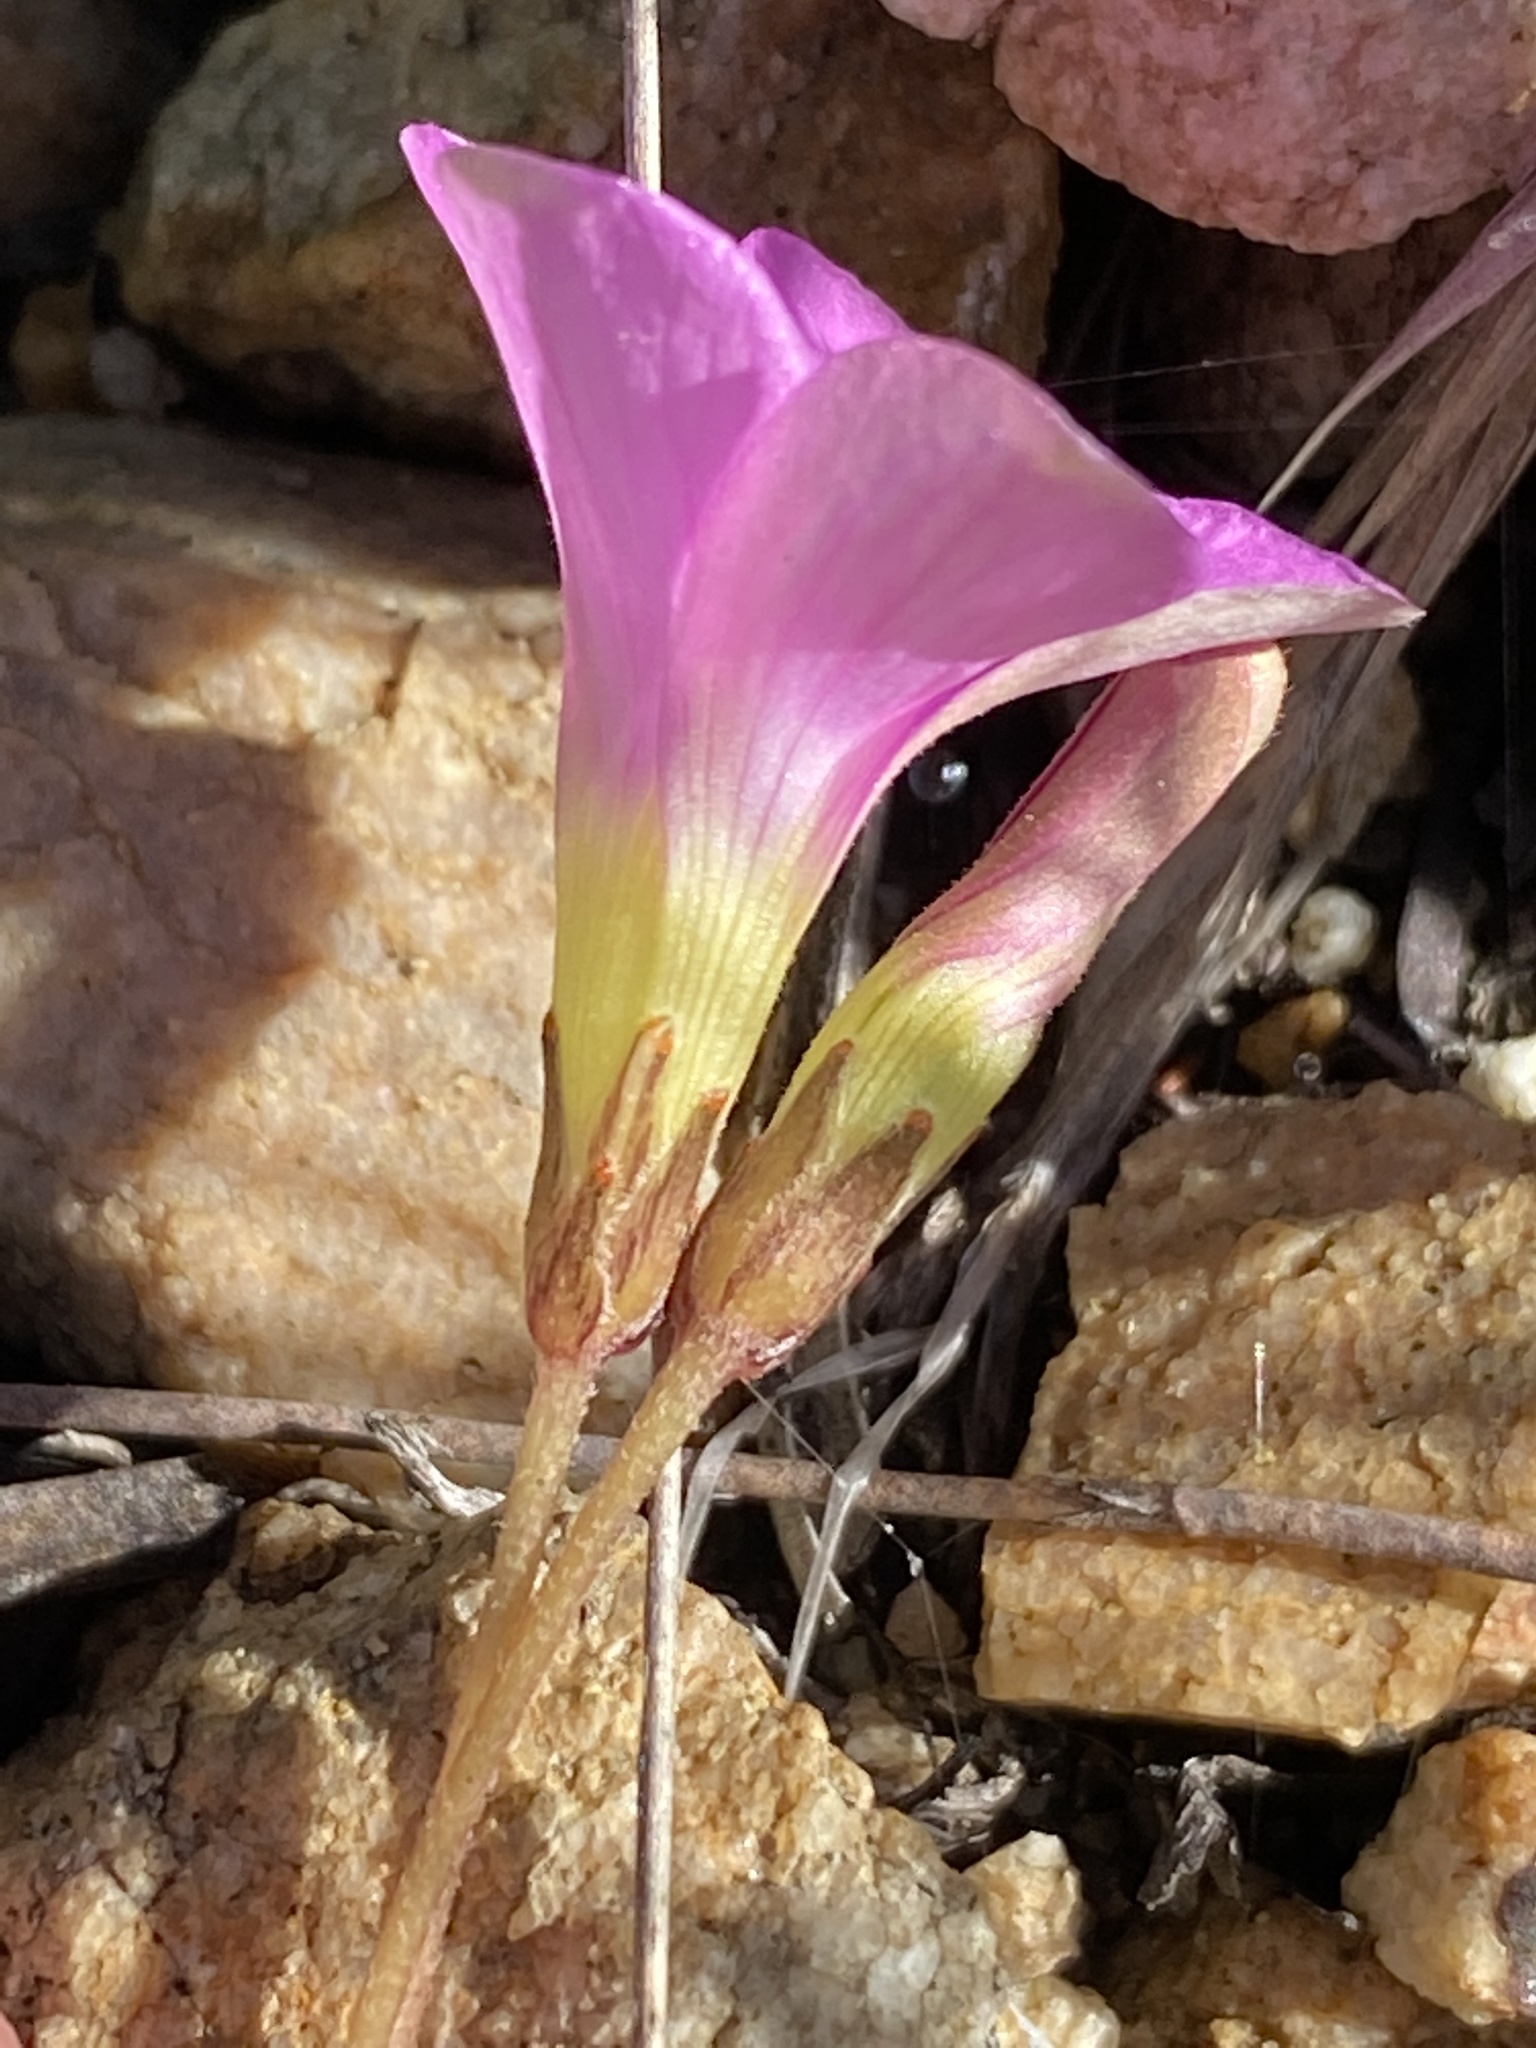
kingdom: Plantae
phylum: Tracheophyta
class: Magnoliopsida
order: Oxalidales
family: Oxalidaceae
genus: Oxalis
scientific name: Oxalis polyphylla
